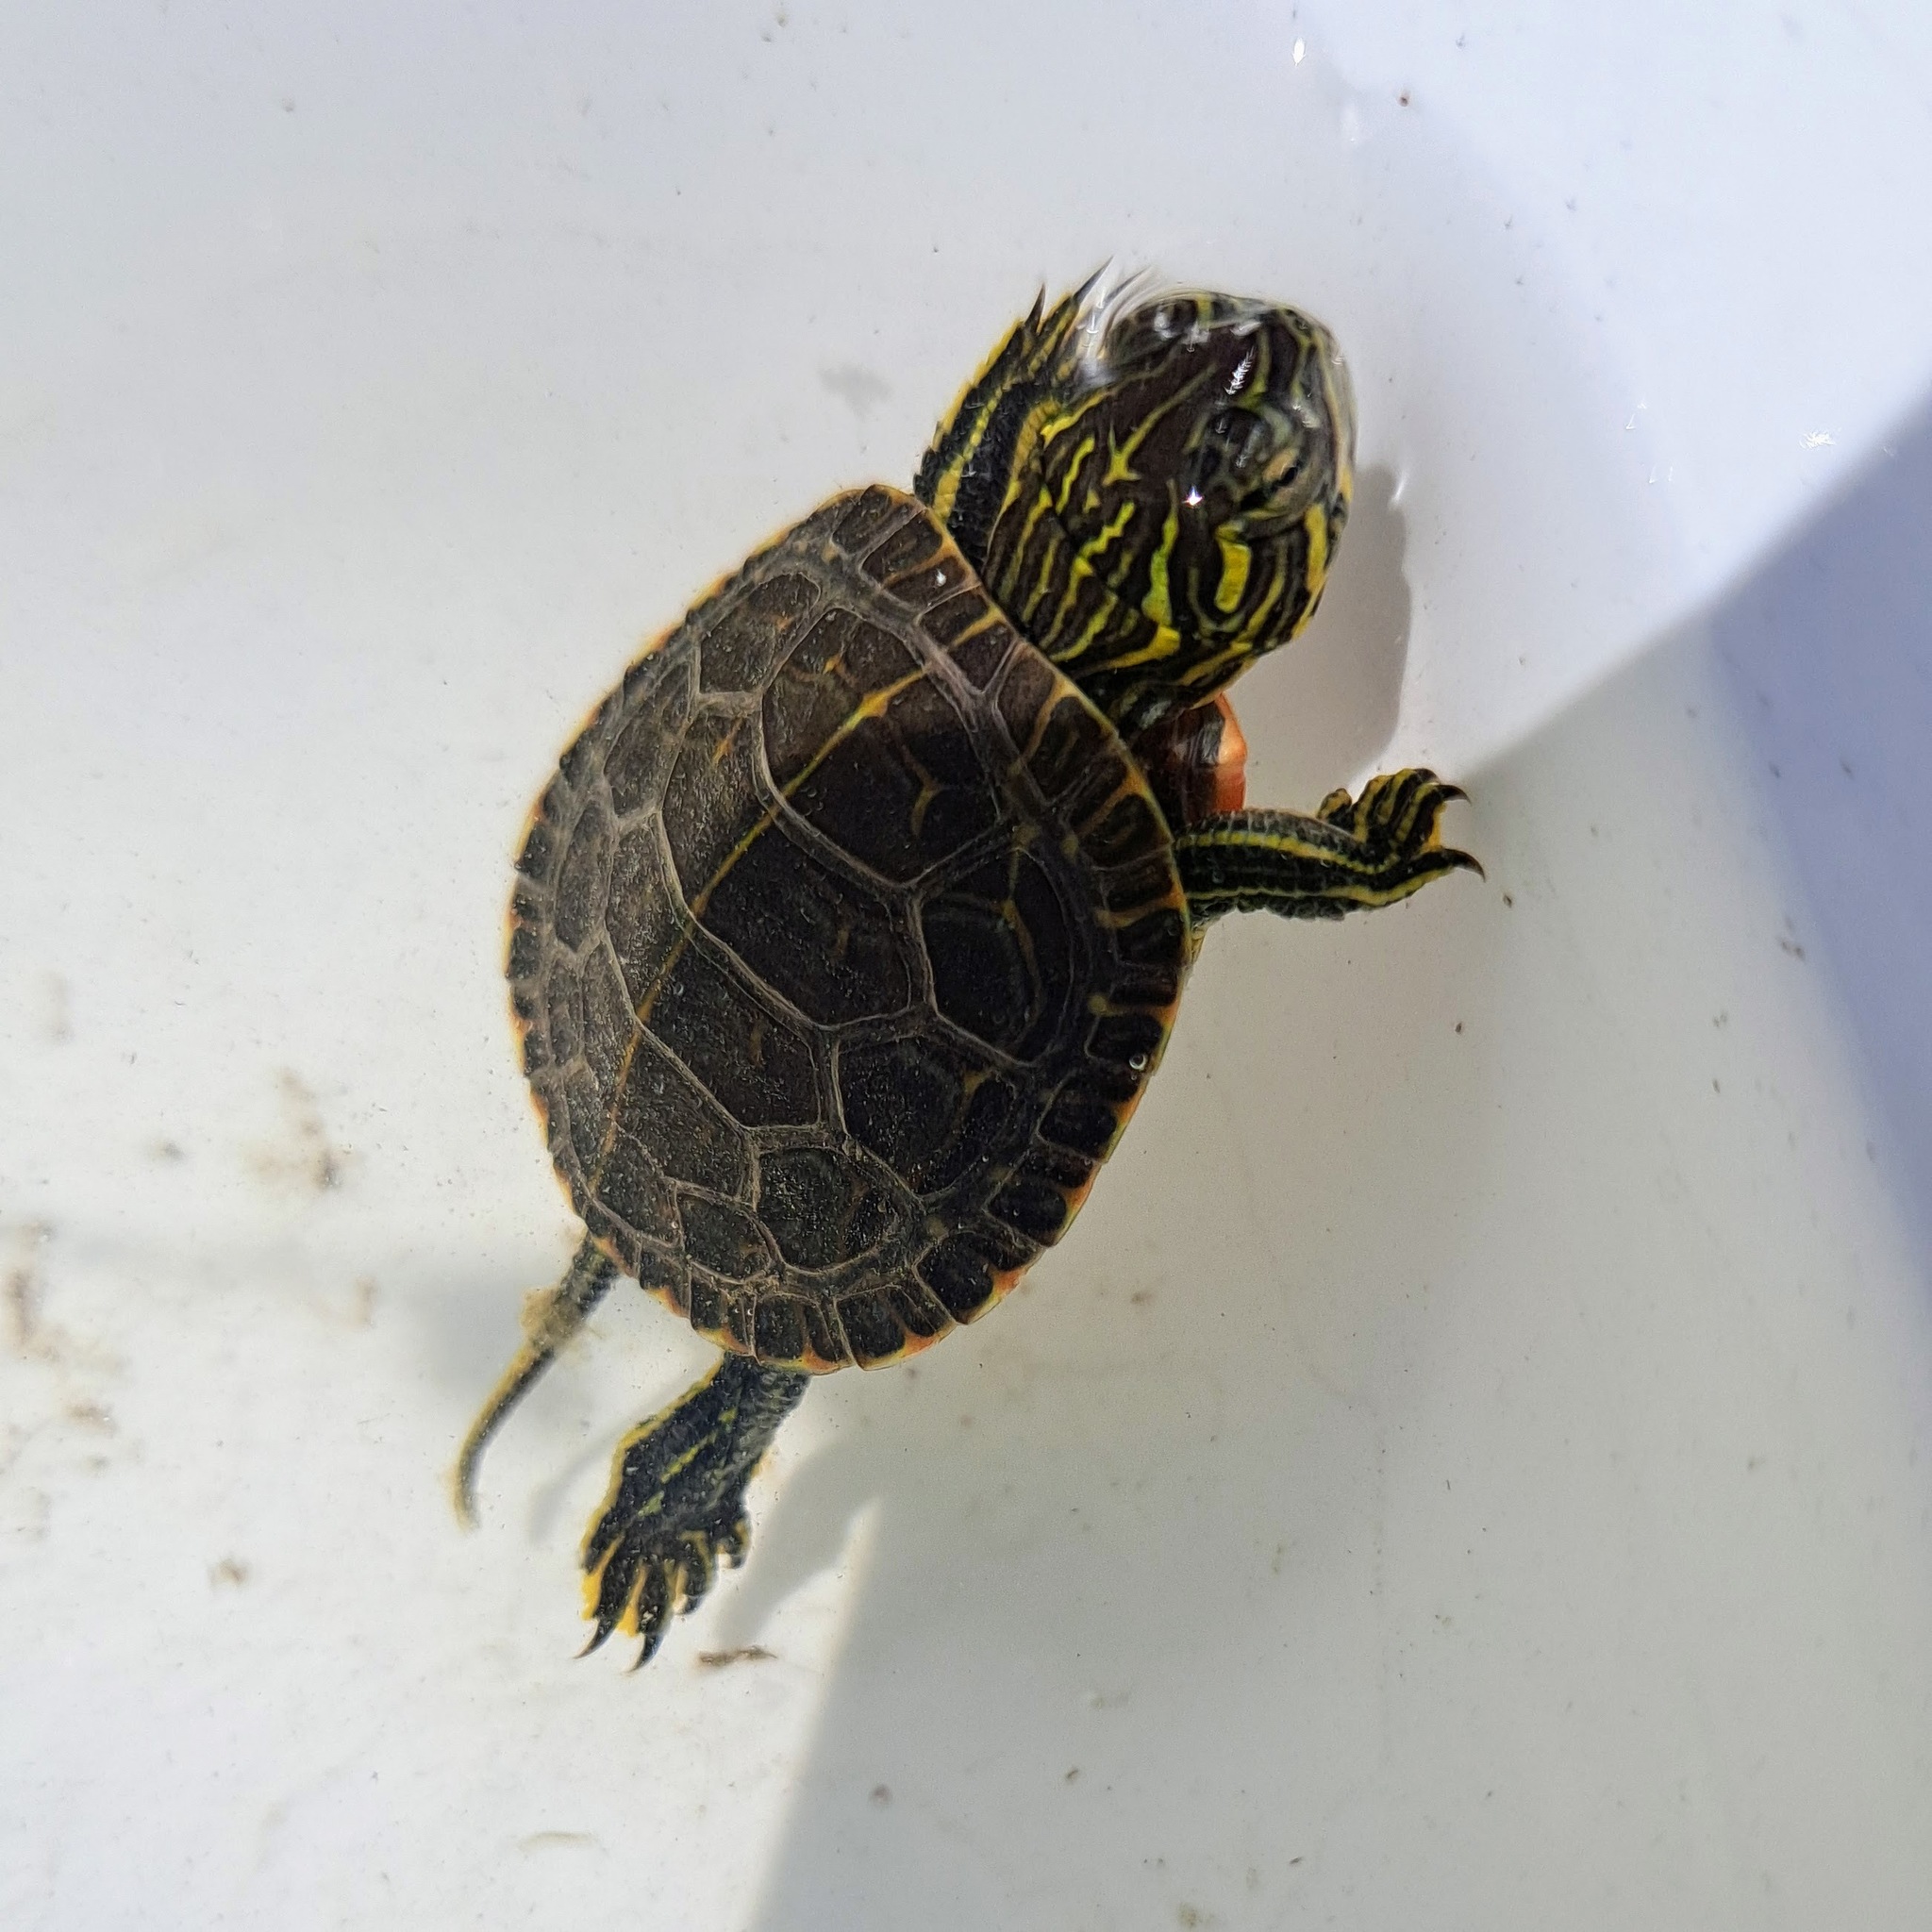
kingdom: Animalia
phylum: Chordata
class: Testudines
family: Emydidae
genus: Chrysemys
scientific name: Chrysemys picta
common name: Painted turtle
